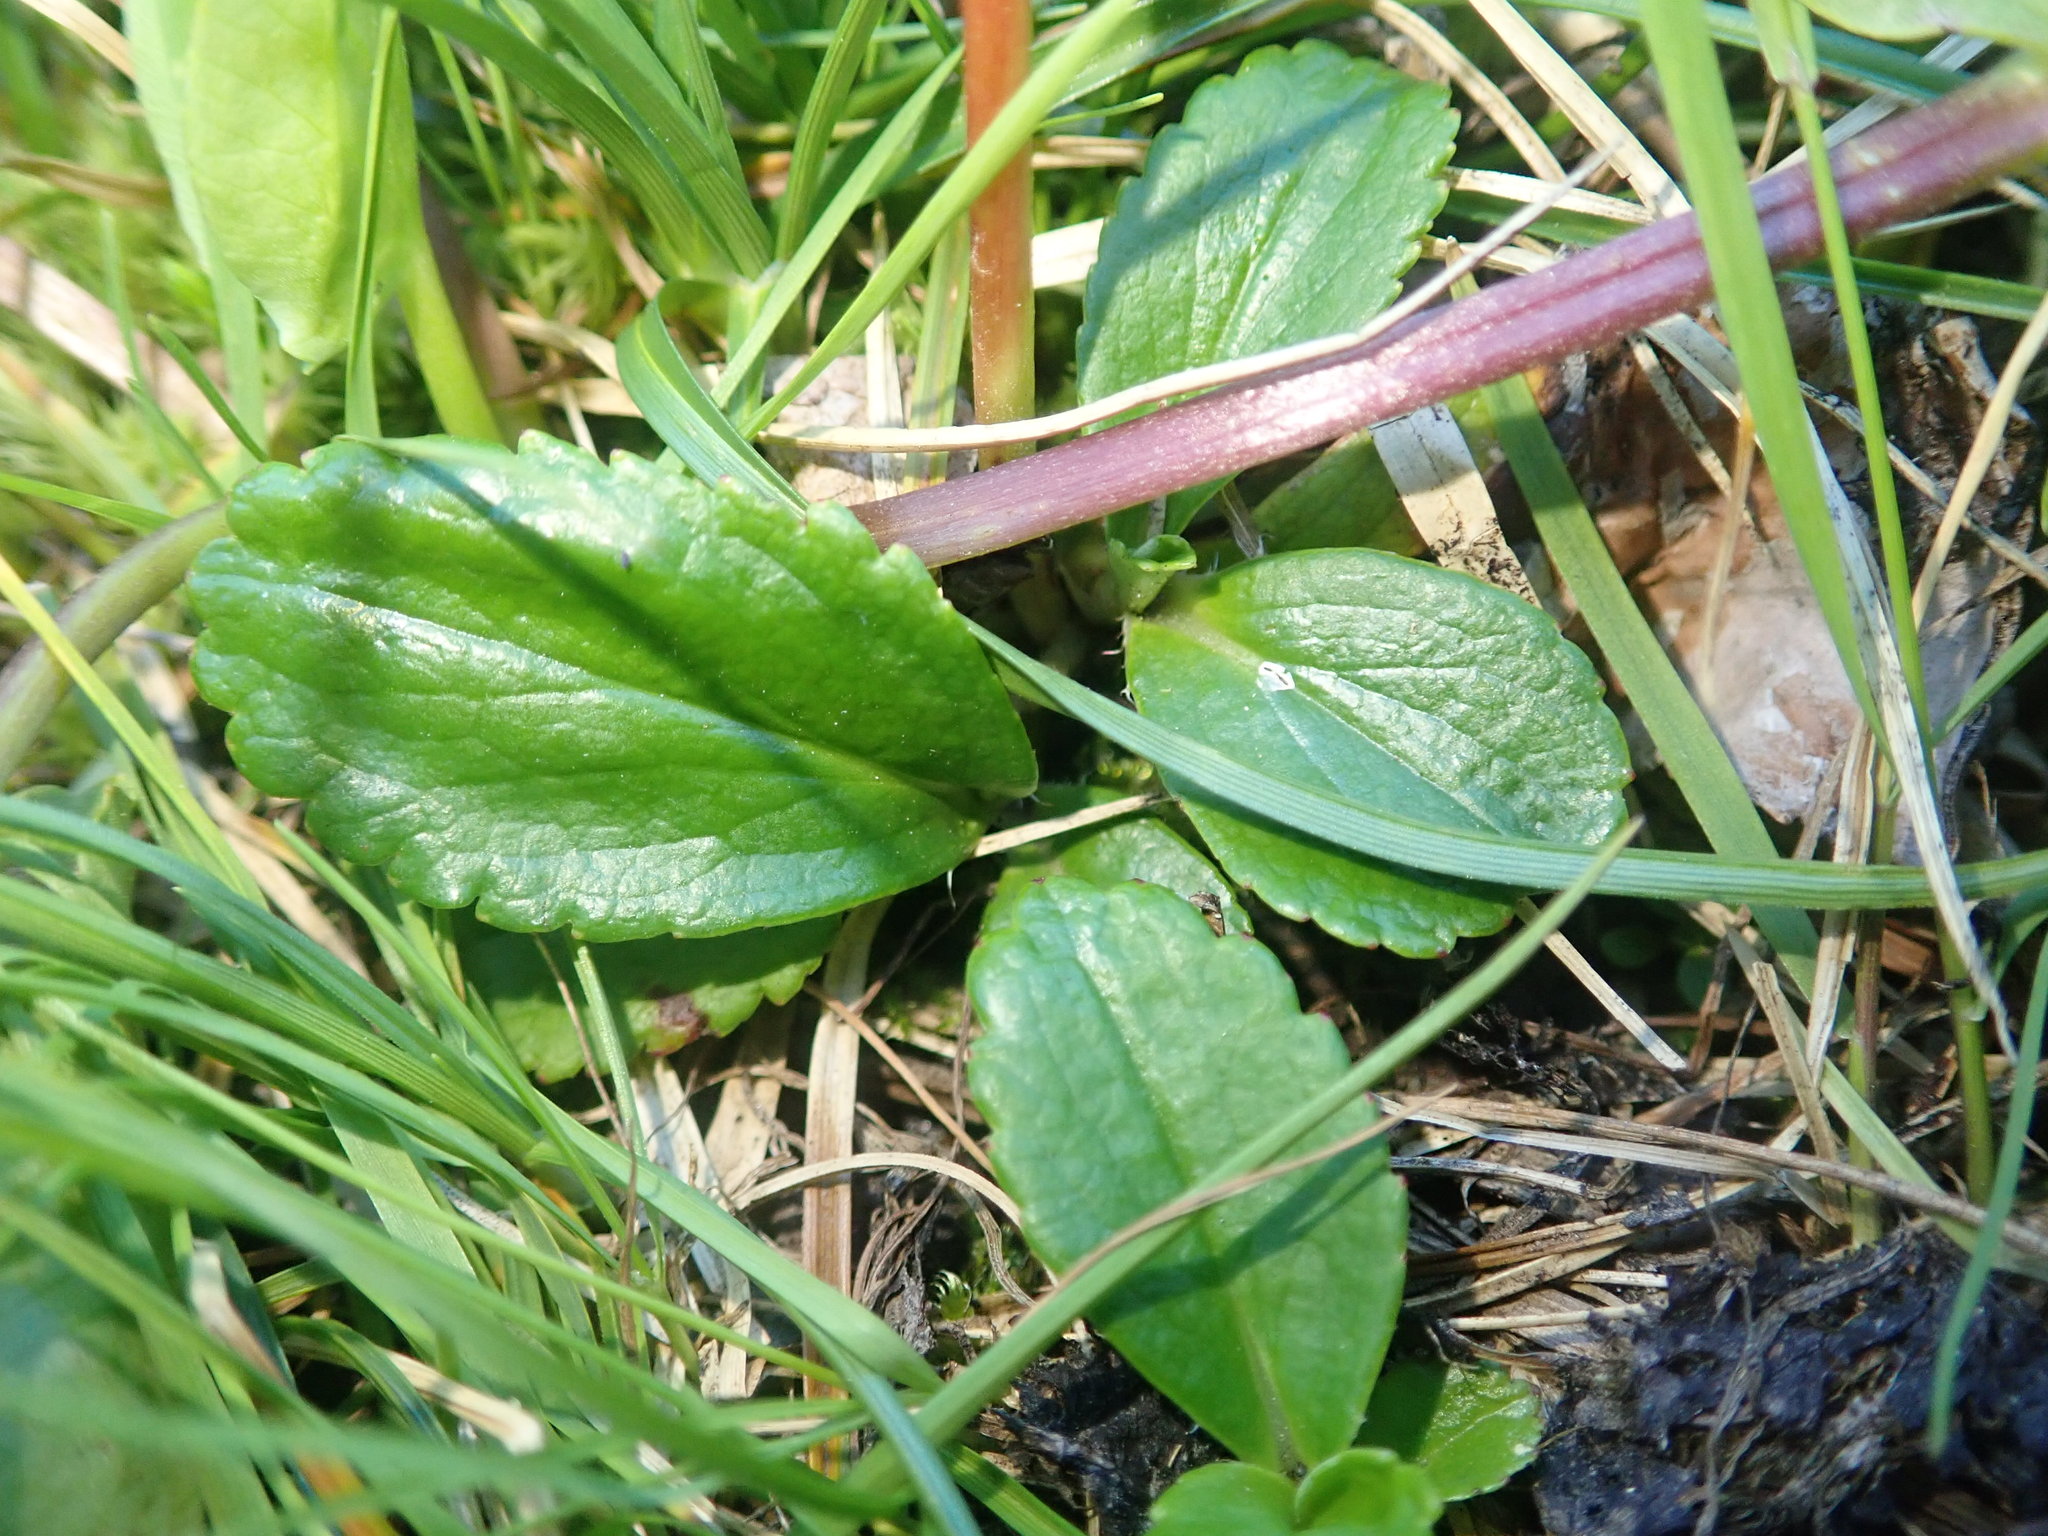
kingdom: Plantae
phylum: Tracheophyta
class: Magnoliopsida
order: Saxifragales
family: Saxifragaceae
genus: Leptarrhena
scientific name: Leptarrhena pyrolifolia
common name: Leatherleaf-saxifrage
